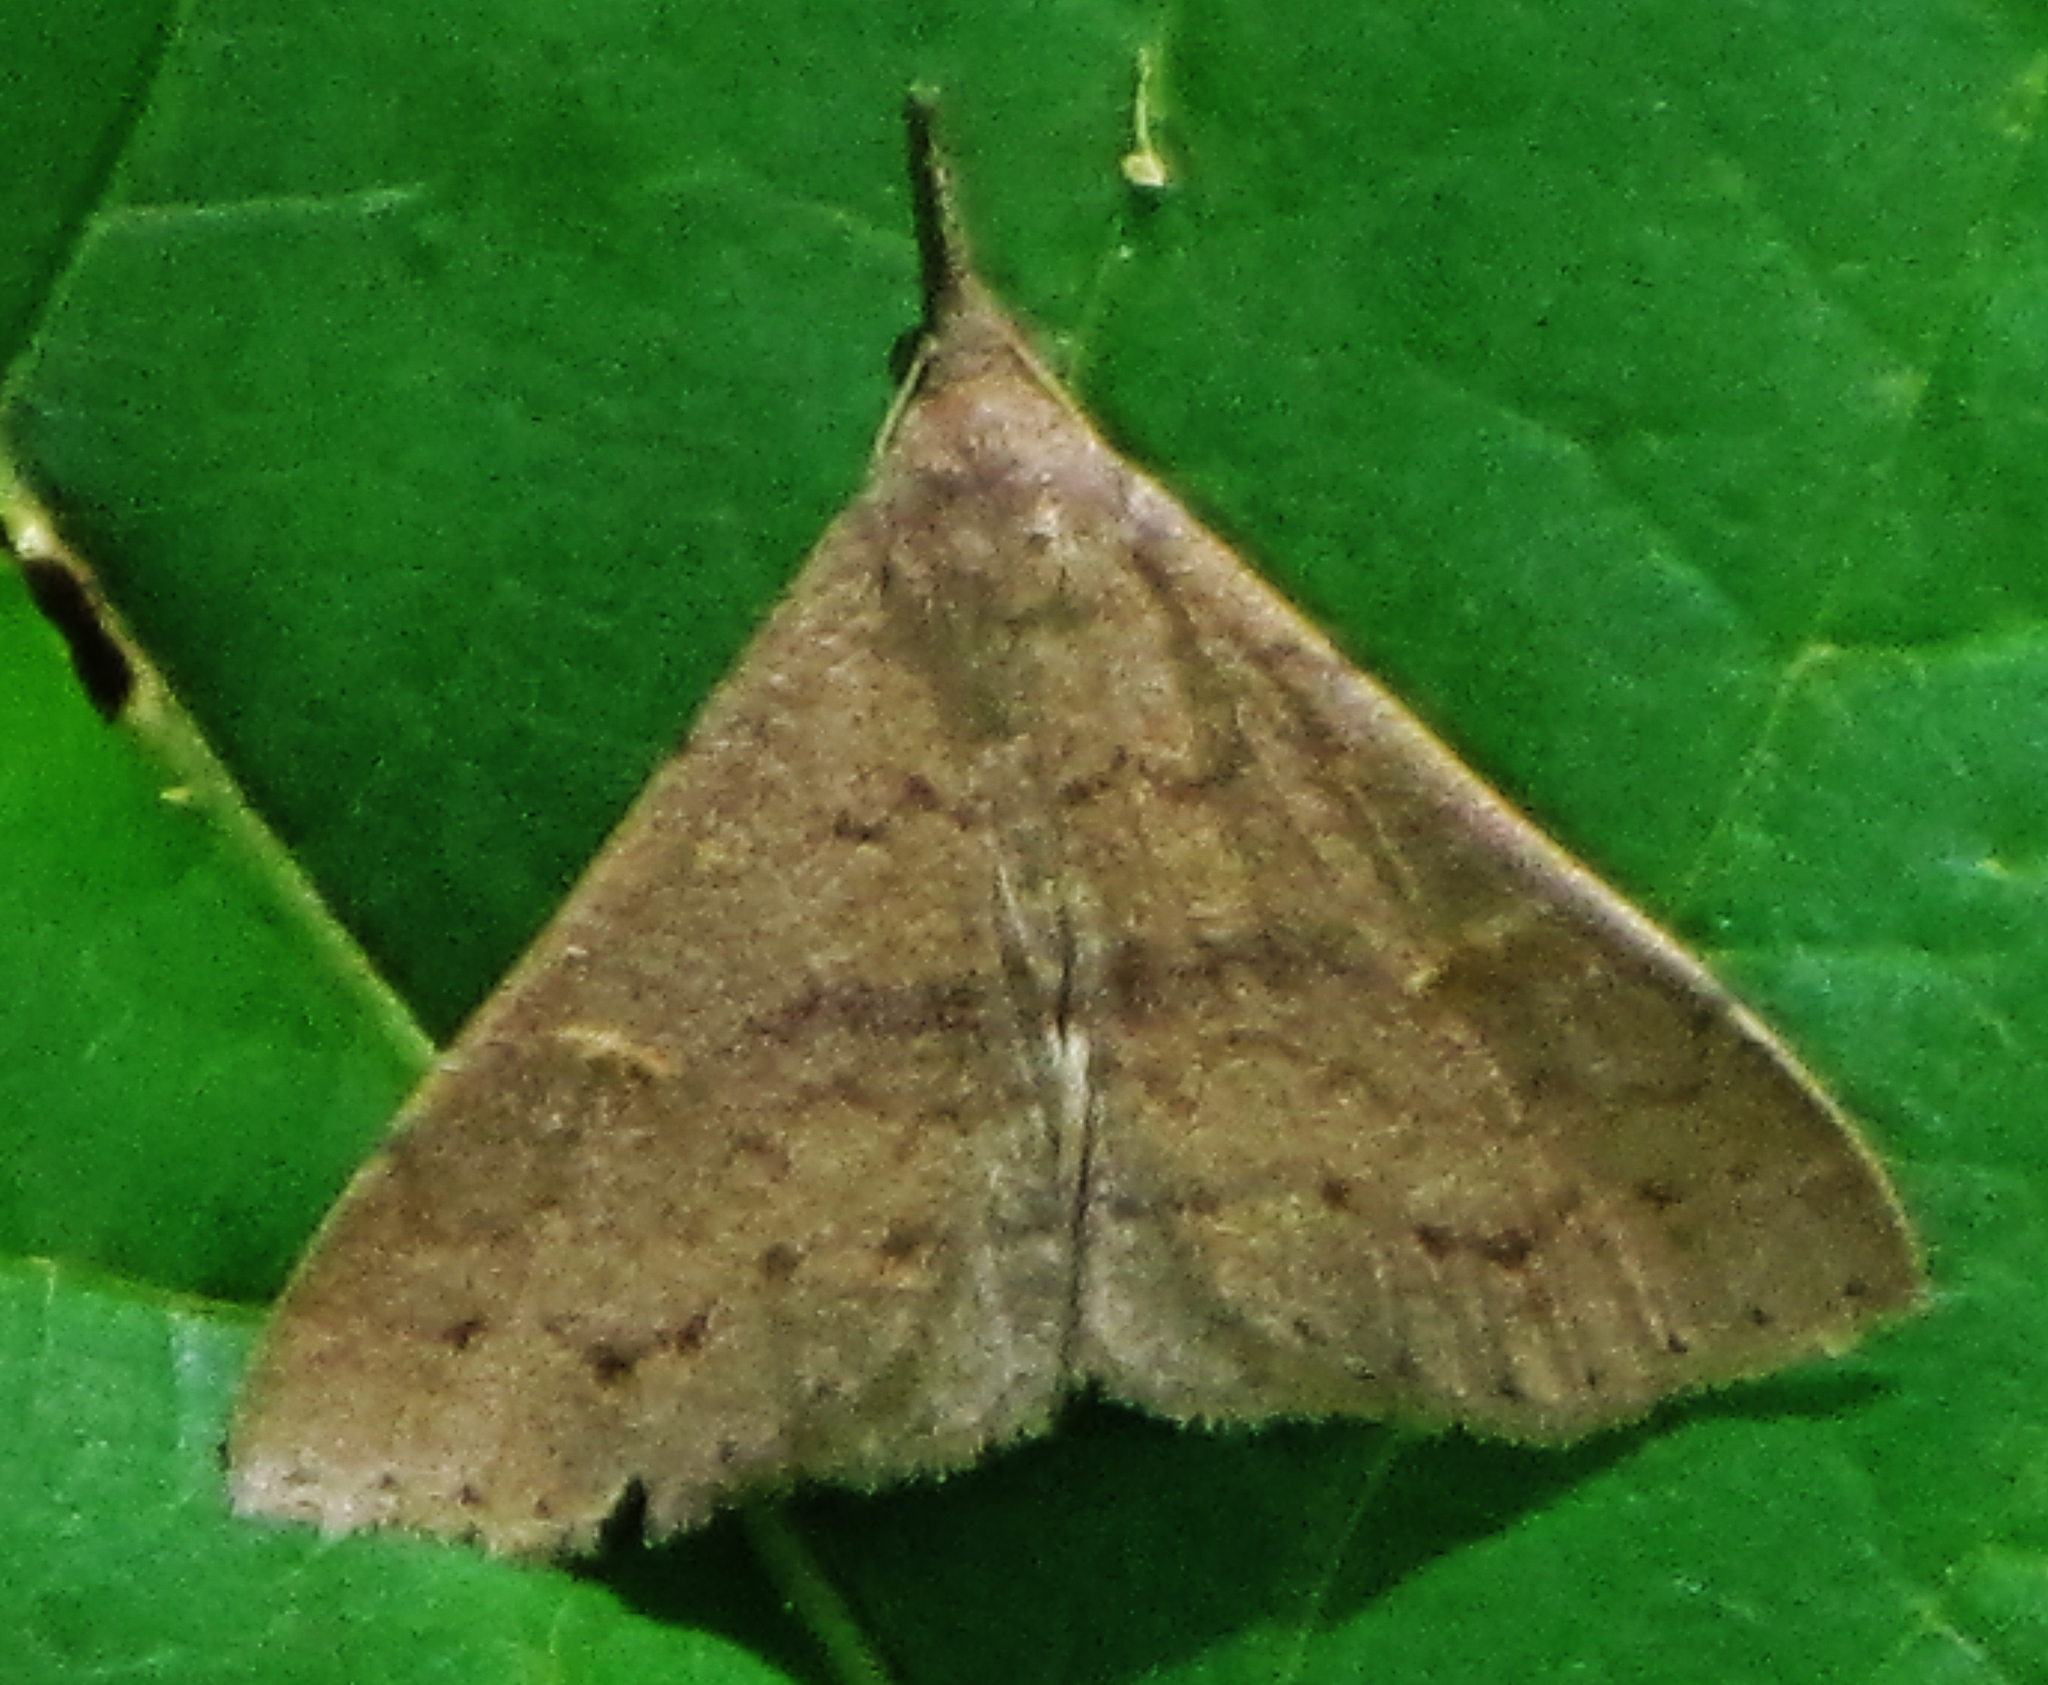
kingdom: Animalia
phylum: Arthropoda
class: Insecta
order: Lepidoptera
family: Erebidae
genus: Renia
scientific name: Renia adspergillus
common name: Speckled renia moth
